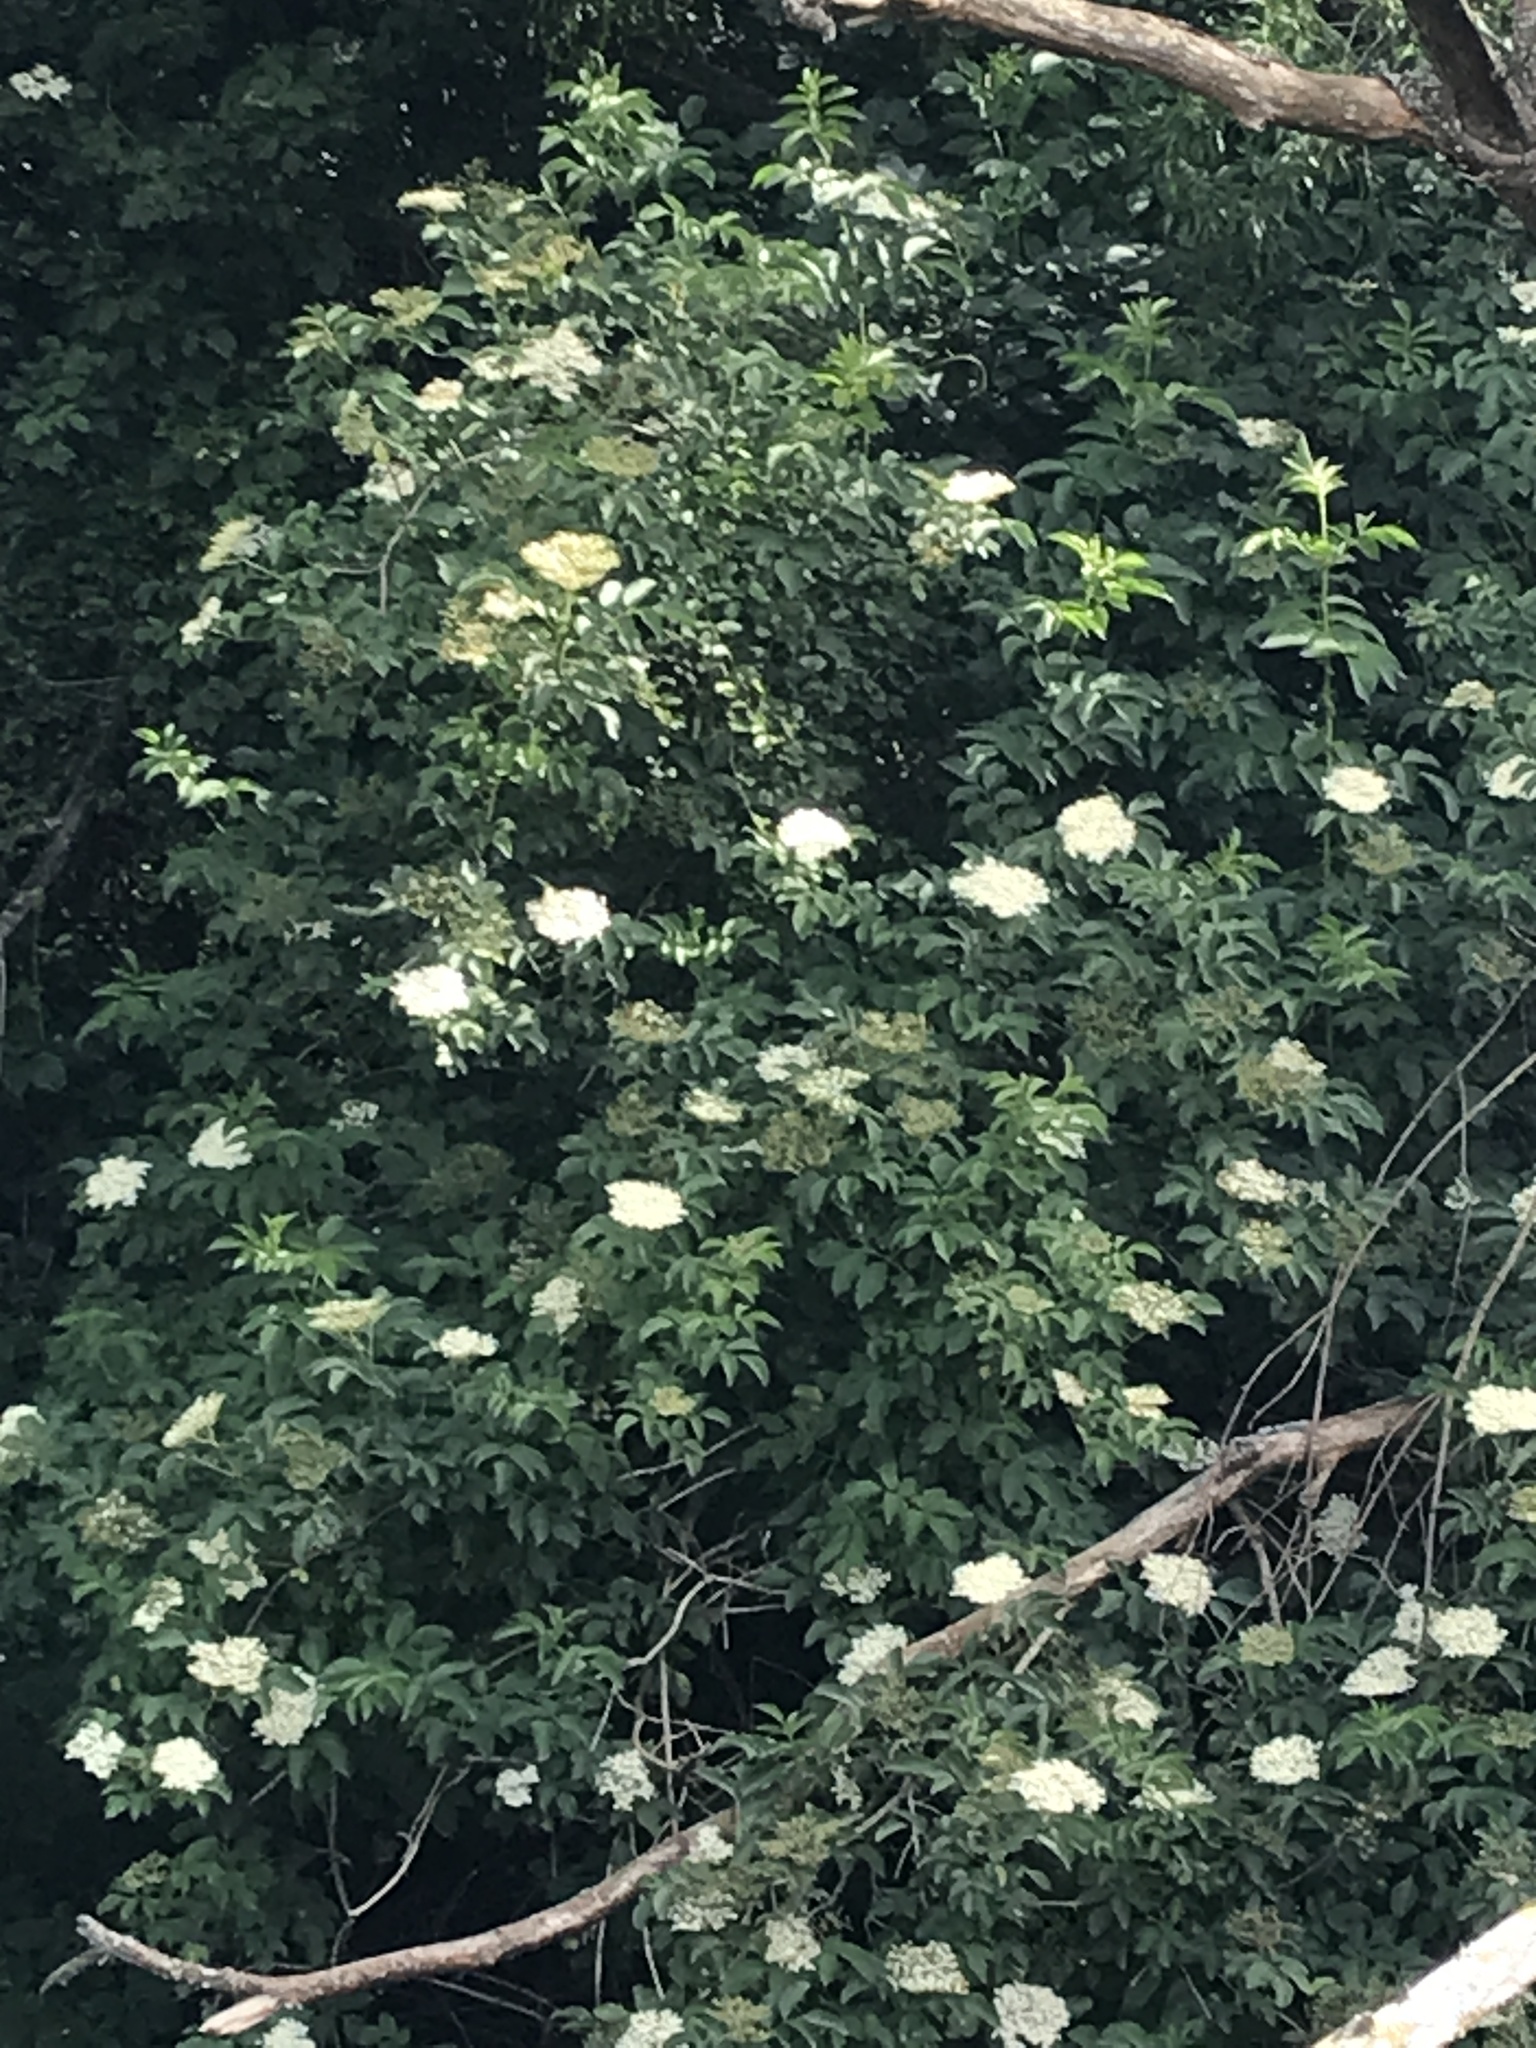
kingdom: Plantae
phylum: Tracheophyta
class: Magnoliopsida
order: Dipsacales
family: Viburnaceae
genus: Sambucus
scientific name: Sambucus nigra
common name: Elder
